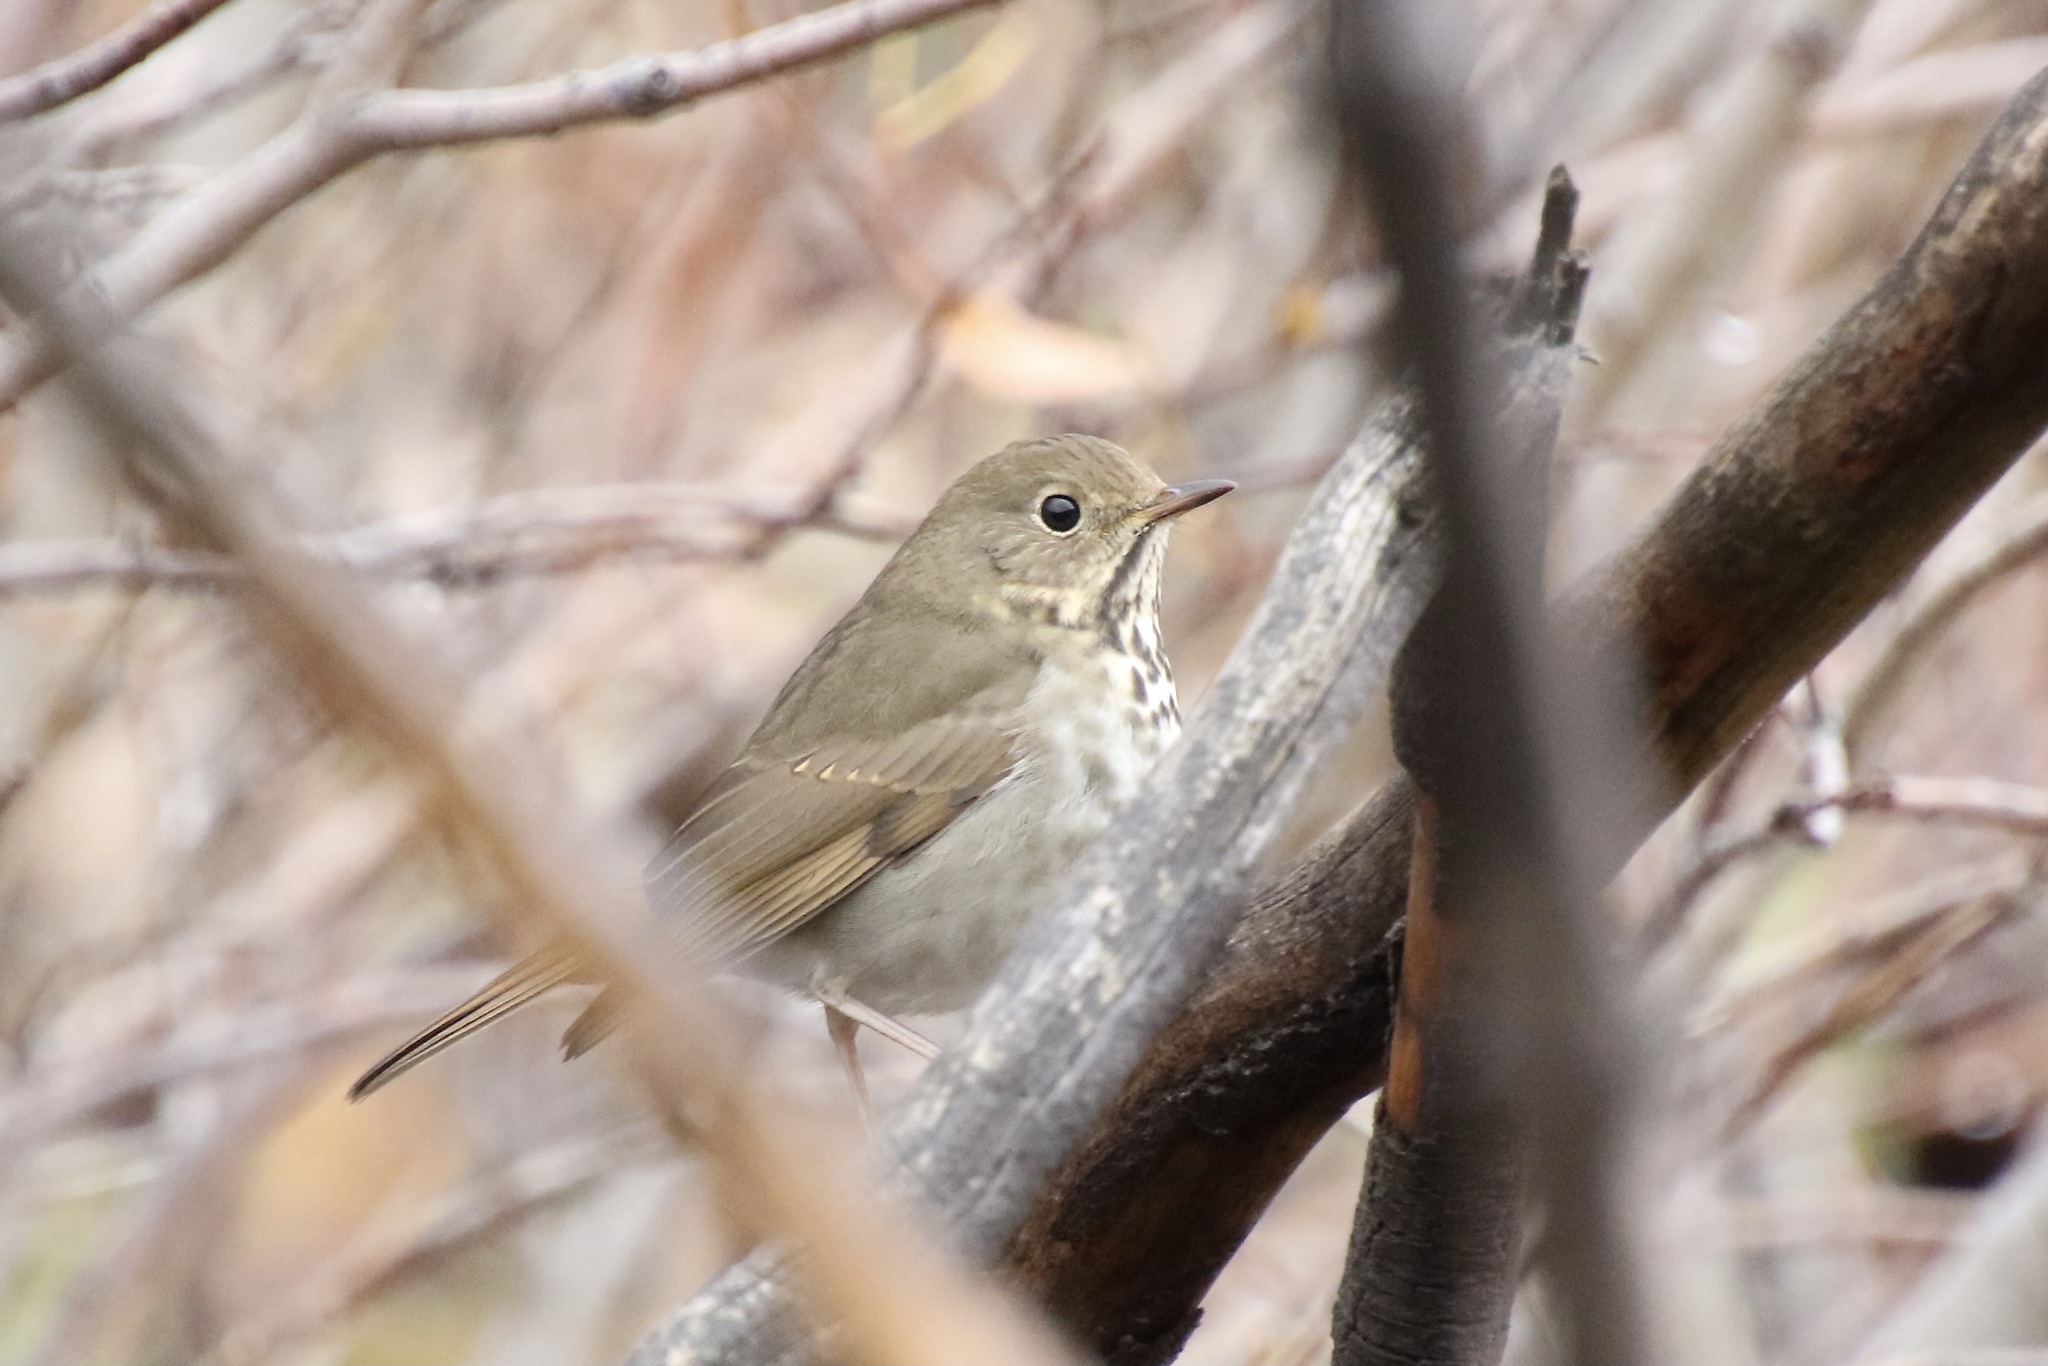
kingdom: Animalia
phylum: Chordata
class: Aves
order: Passeriformes
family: Turdidae
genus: Catharus
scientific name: Catharus guttatus
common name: Hermit thrush
